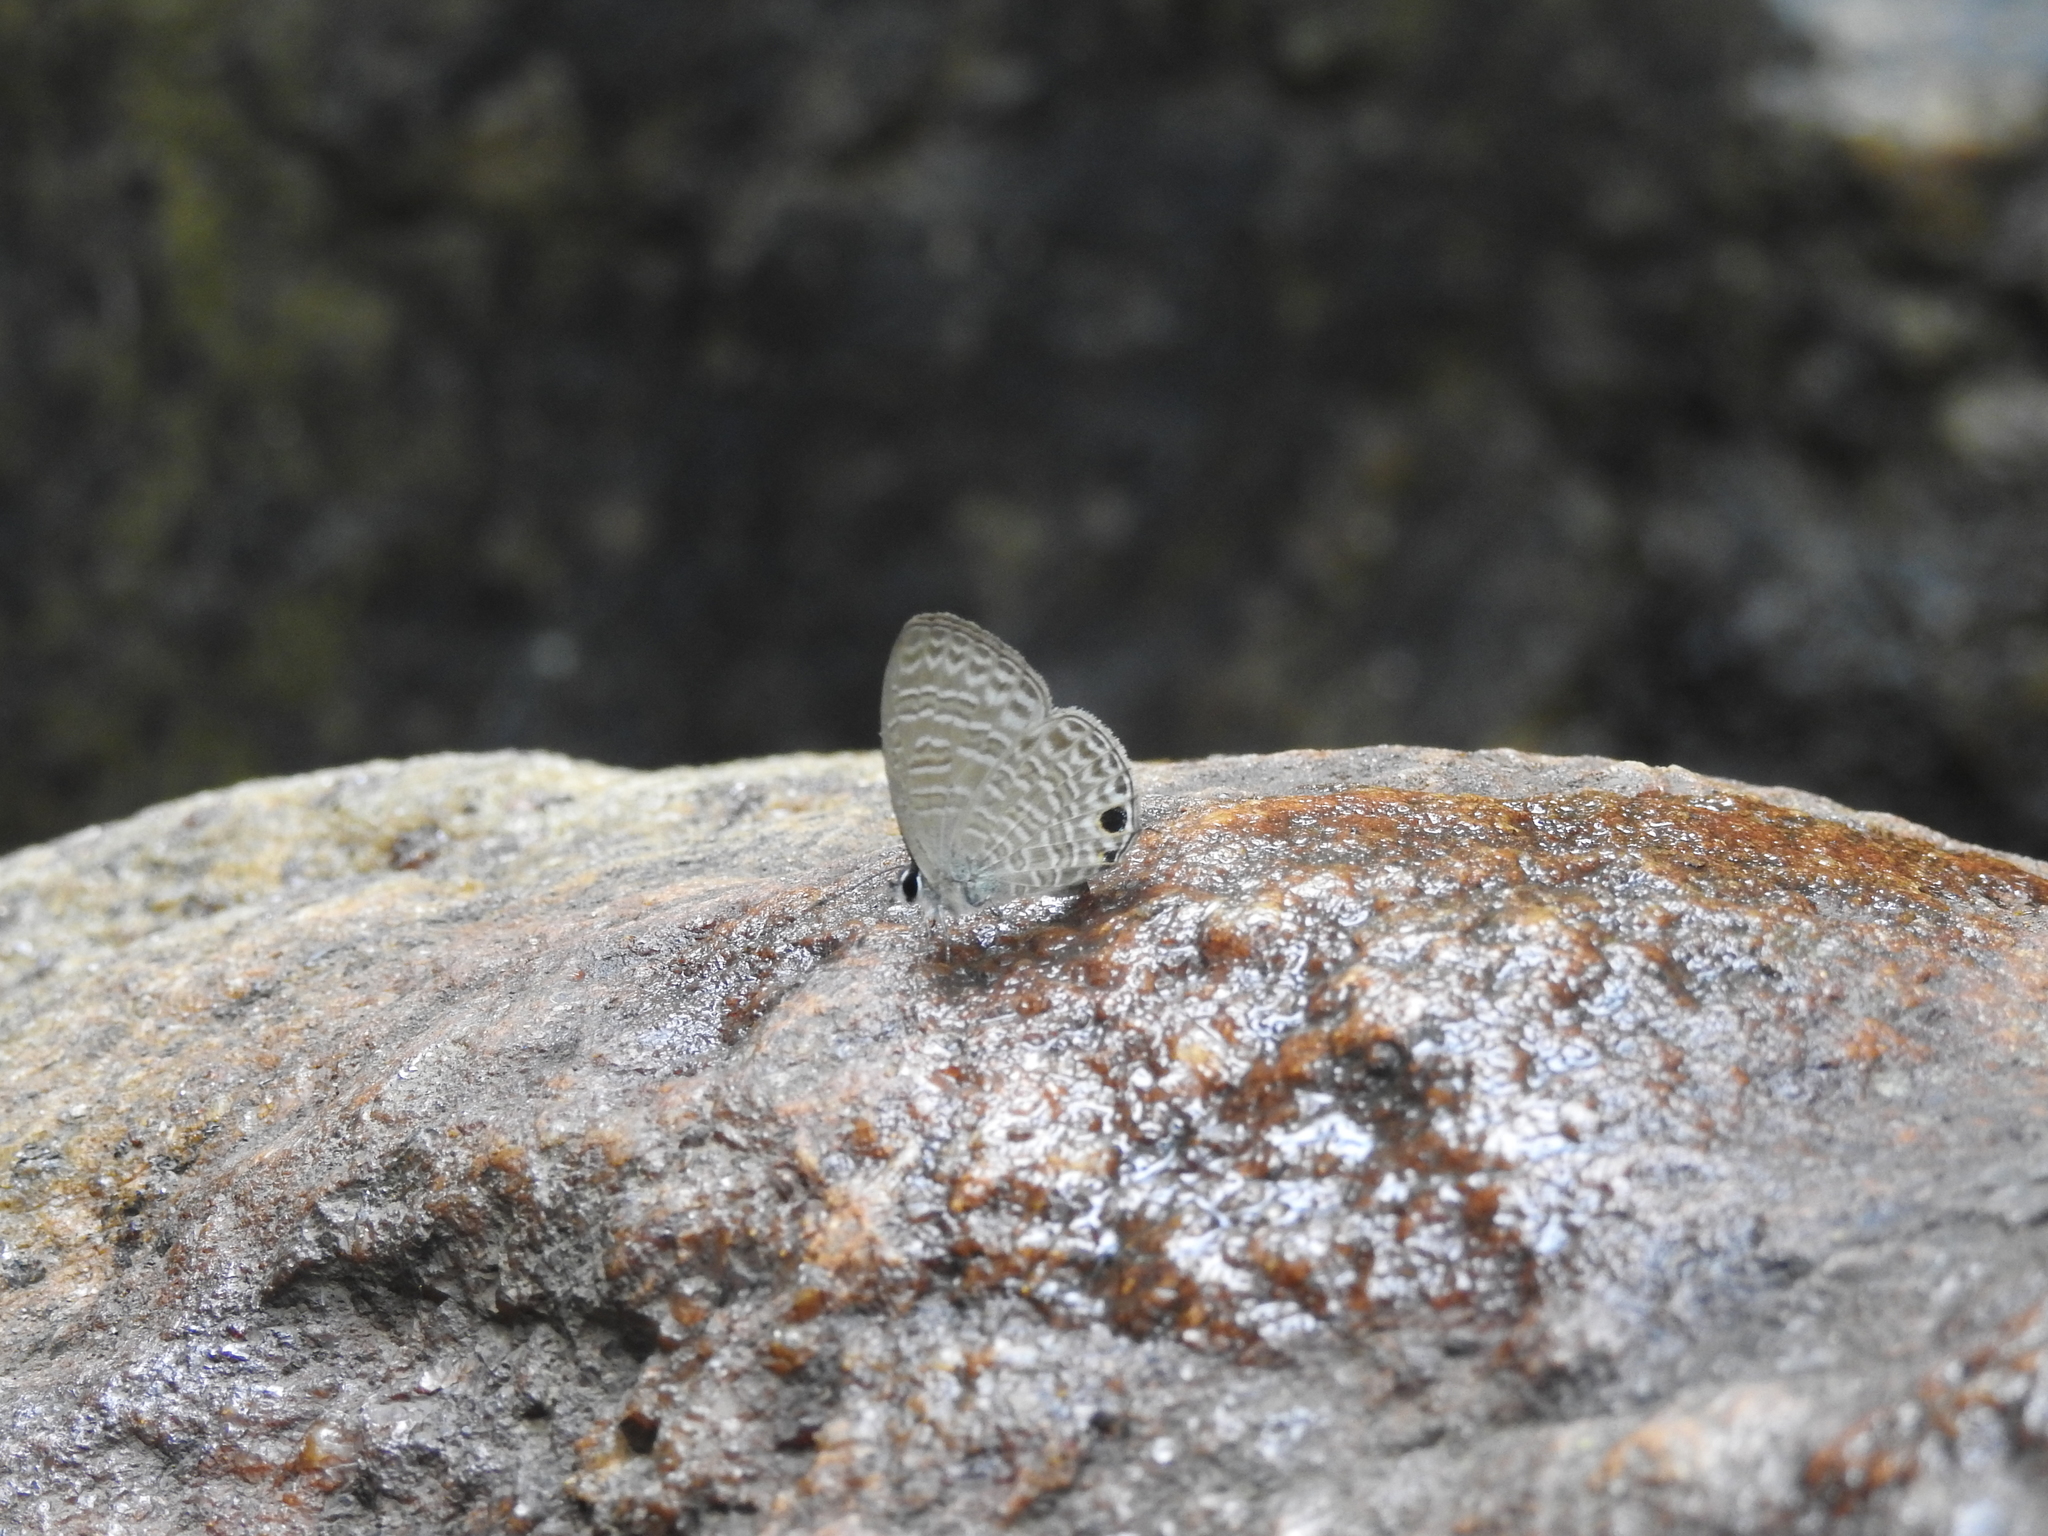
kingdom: Animalia
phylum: Arthropoda
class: Insecta
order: Lepidoptera
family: Lycaenidae
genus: Nacaduba
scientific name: Nacaduba sinhala
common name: Pale ceylon line blue
